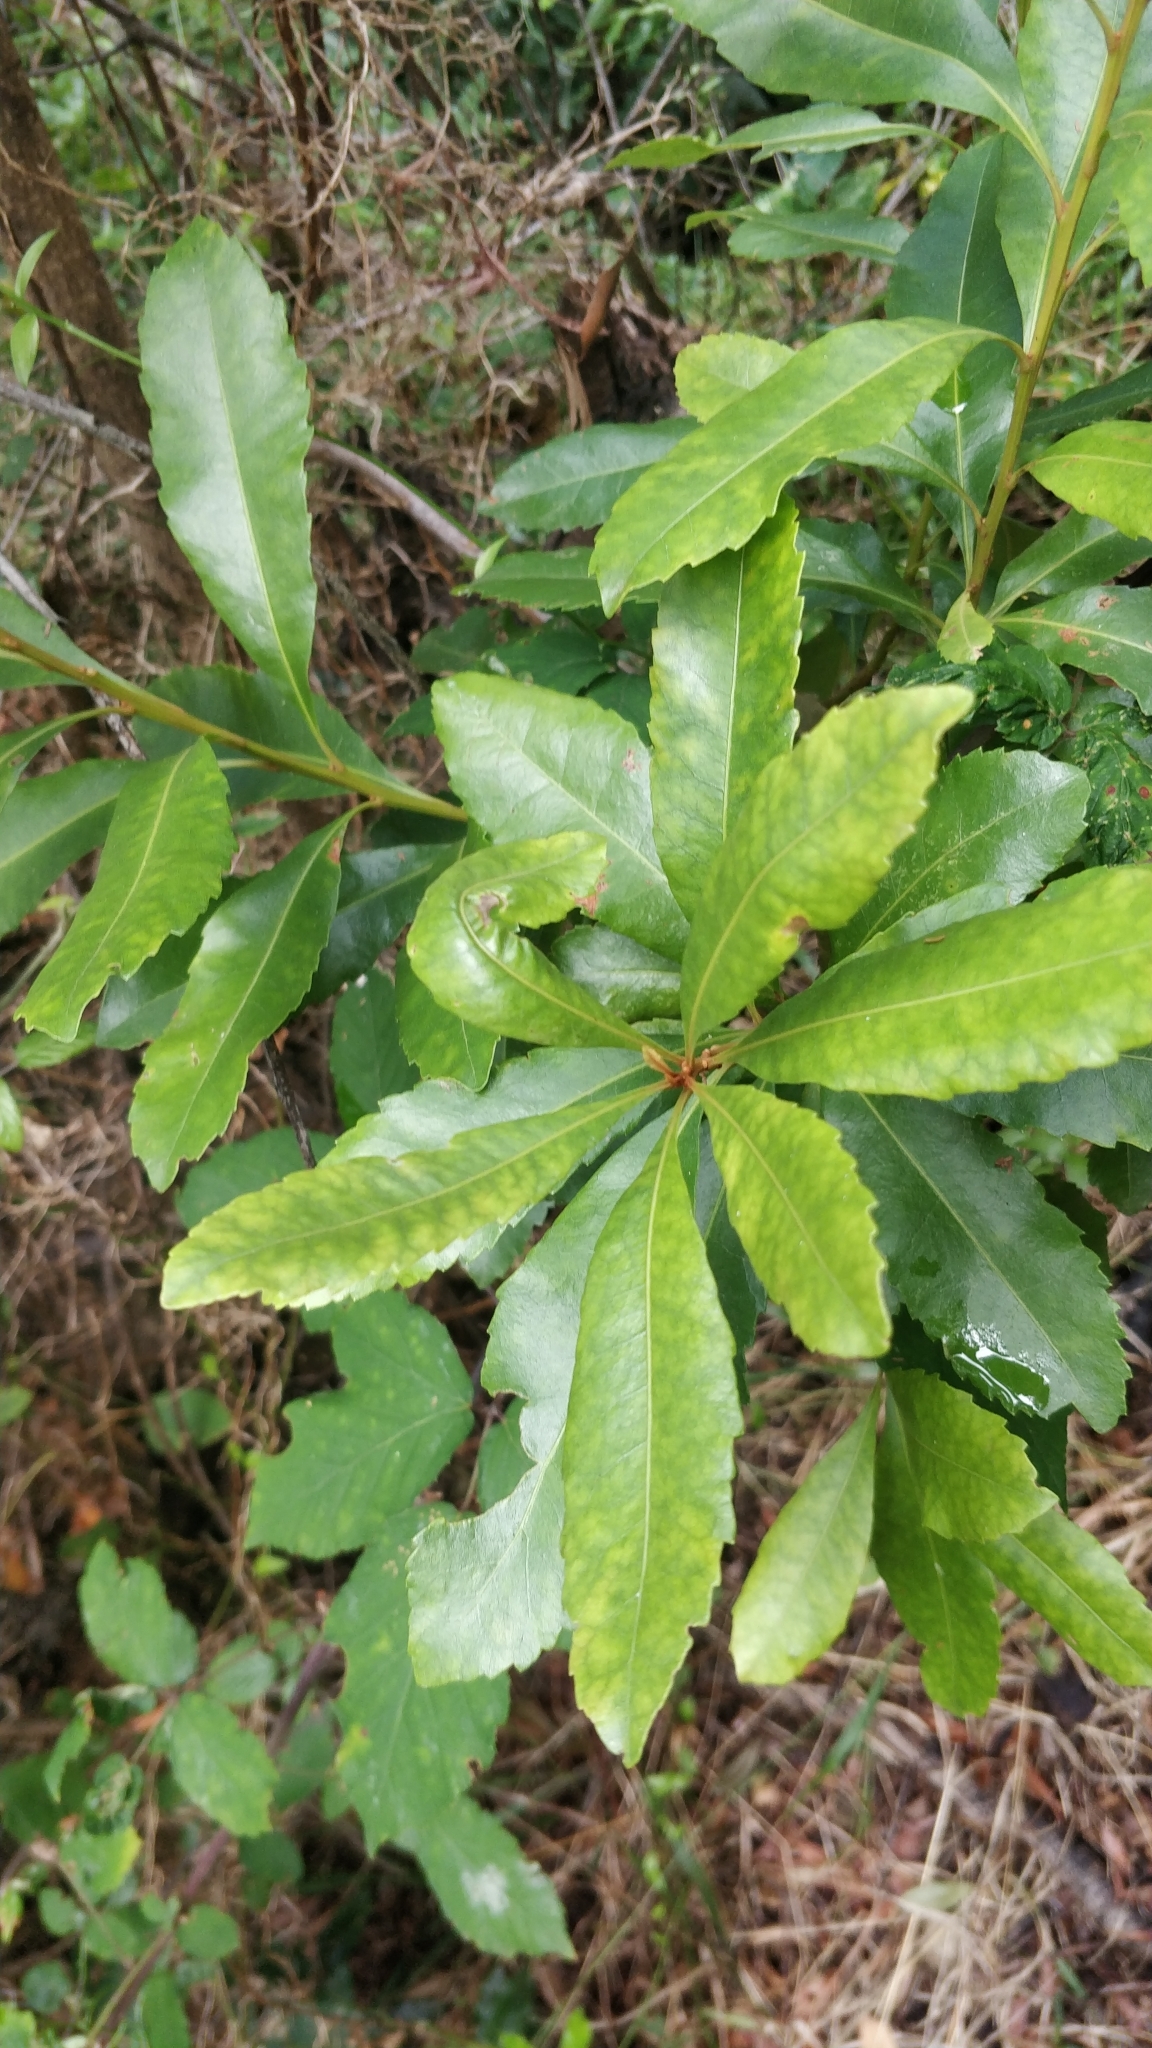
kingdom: Plantae
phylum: Tracheophyta
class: Magnoliopsida
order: Fagales
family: Myricaceae
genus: Morella
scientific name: Morella faya
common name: Firetree
